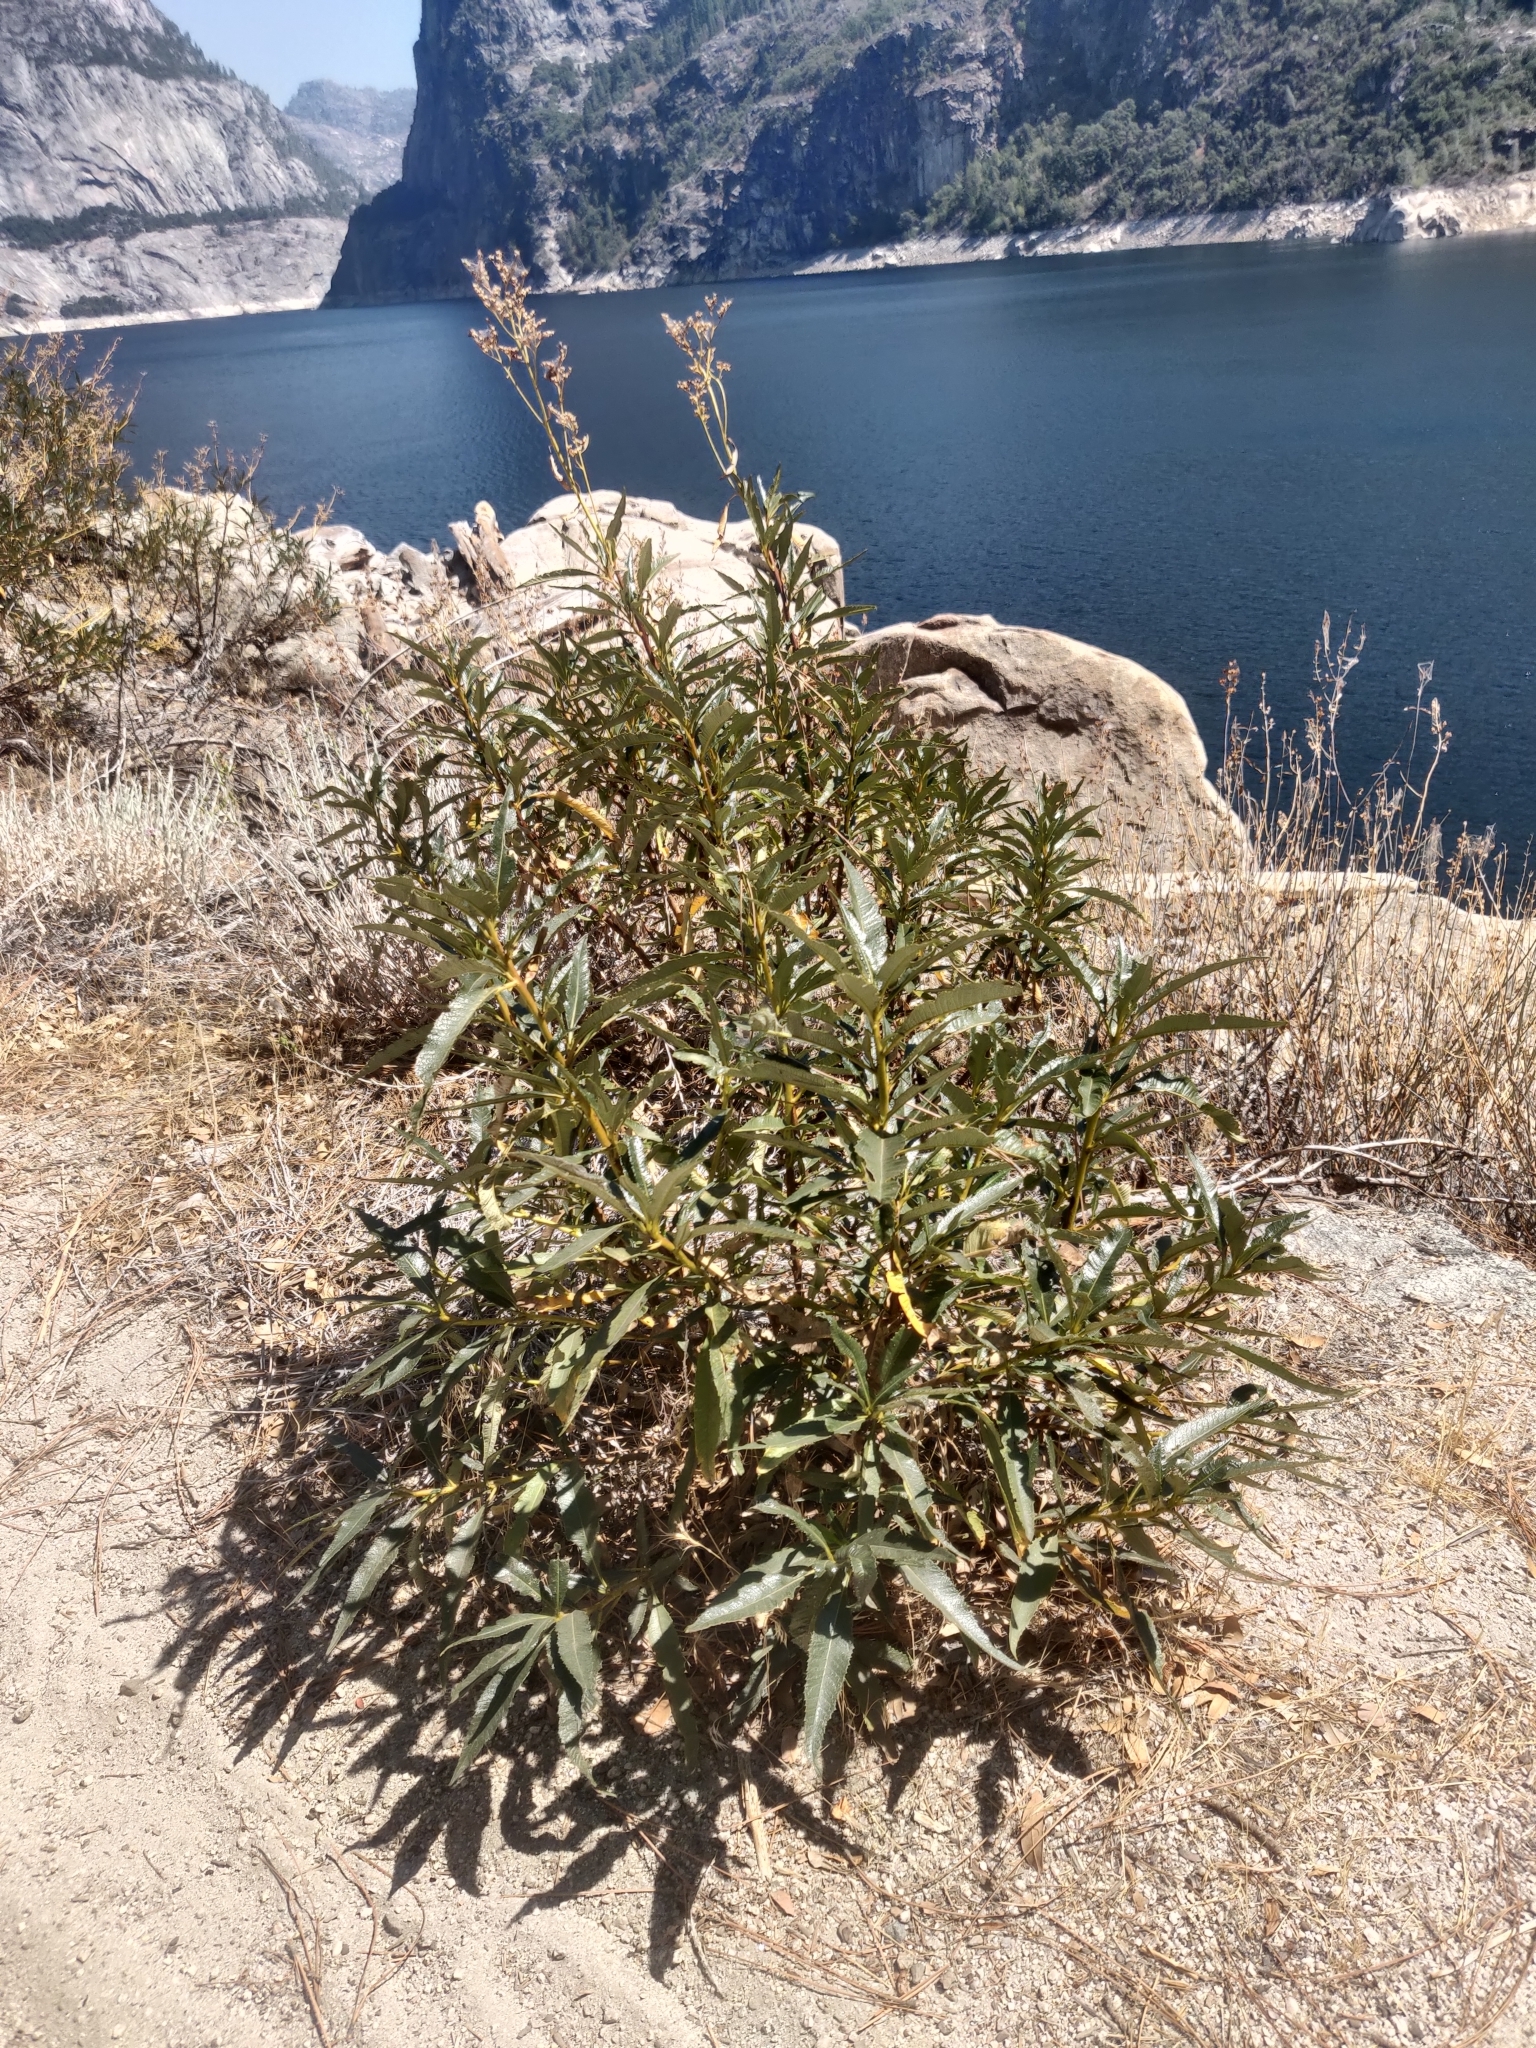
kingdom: Plantae
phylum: Tracheophyta
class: Magnoliopsida
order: Boraginales
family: Namaceae
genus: Eriodictyon
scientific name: Eriodictyon californicum
